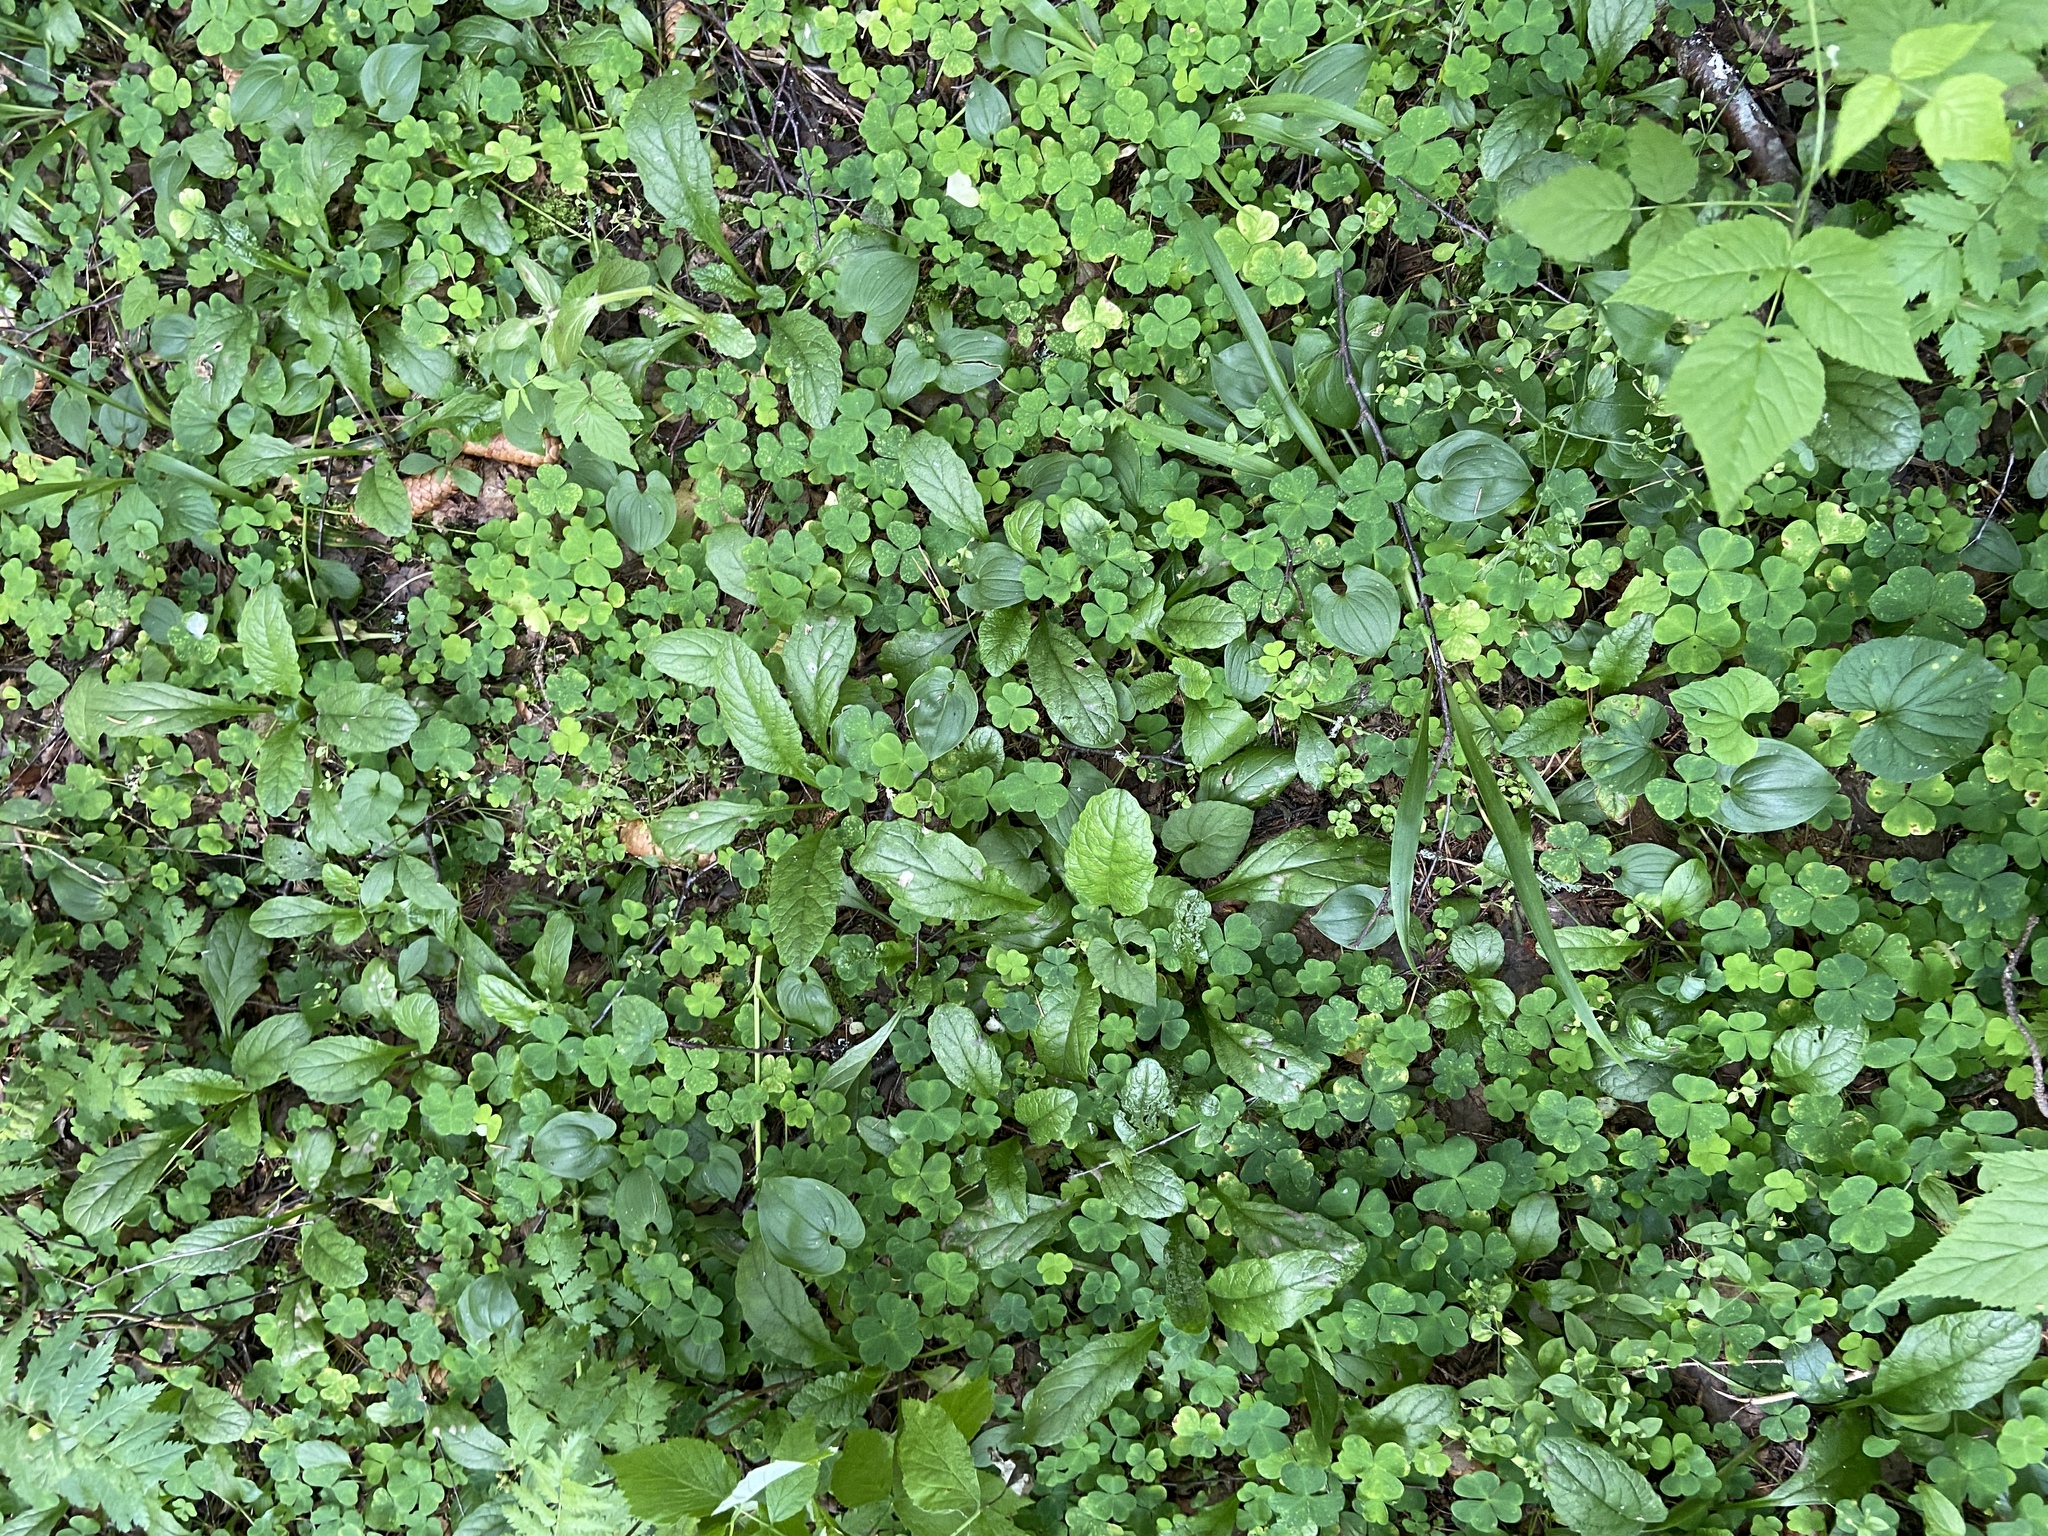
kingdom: Plantae
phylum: Tracheophyta
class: Magnoliopsida
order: Lamiales
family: Lamiaceae
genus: Ajuga
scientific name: Ajuga reptans
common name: Bugle
